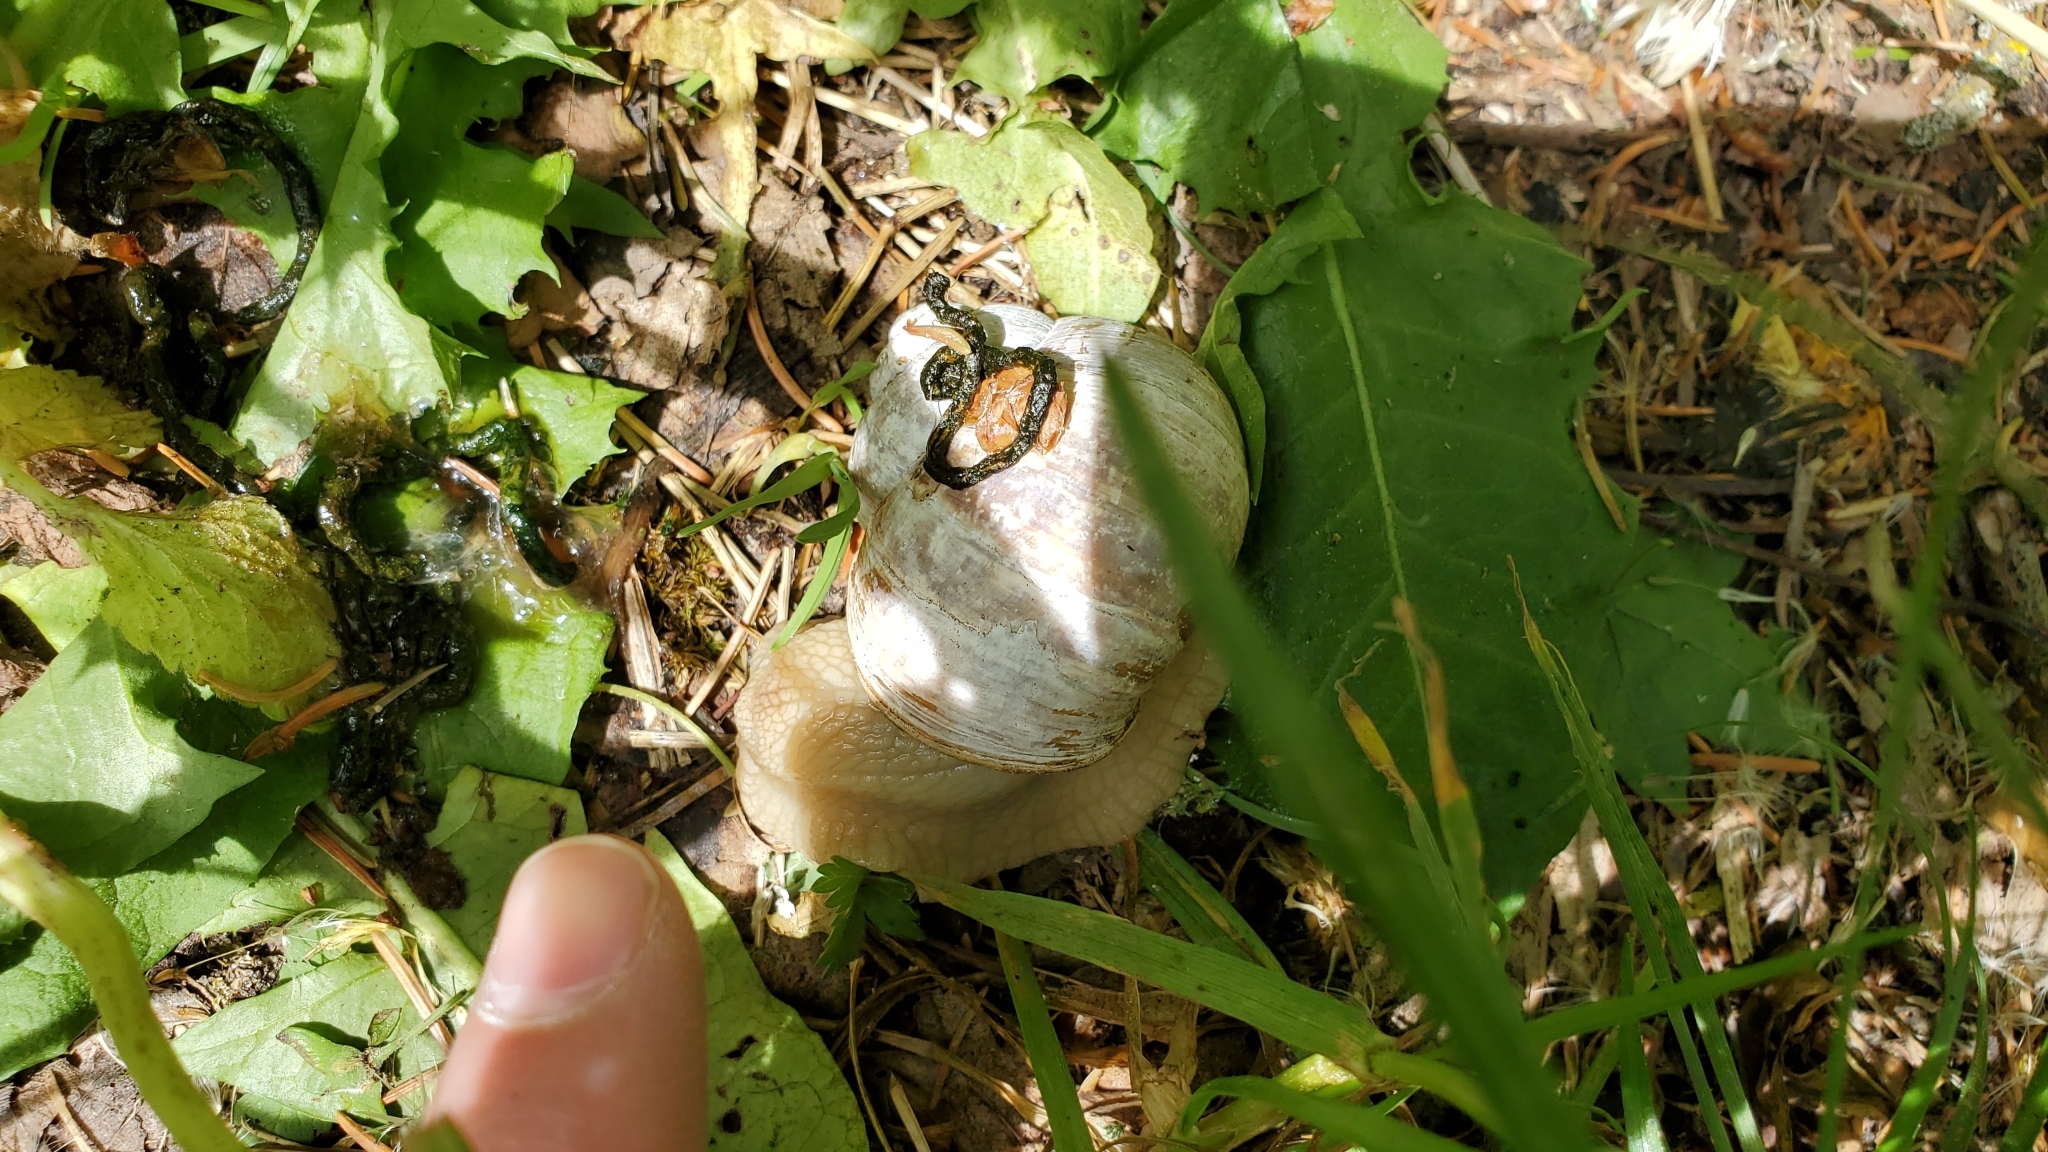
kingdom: Animalia
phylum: Mollusca
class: Gastropoda
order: Stylommatophora
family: Helicidae
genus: Helix
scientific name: Helix pomatia
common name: Roman snail
